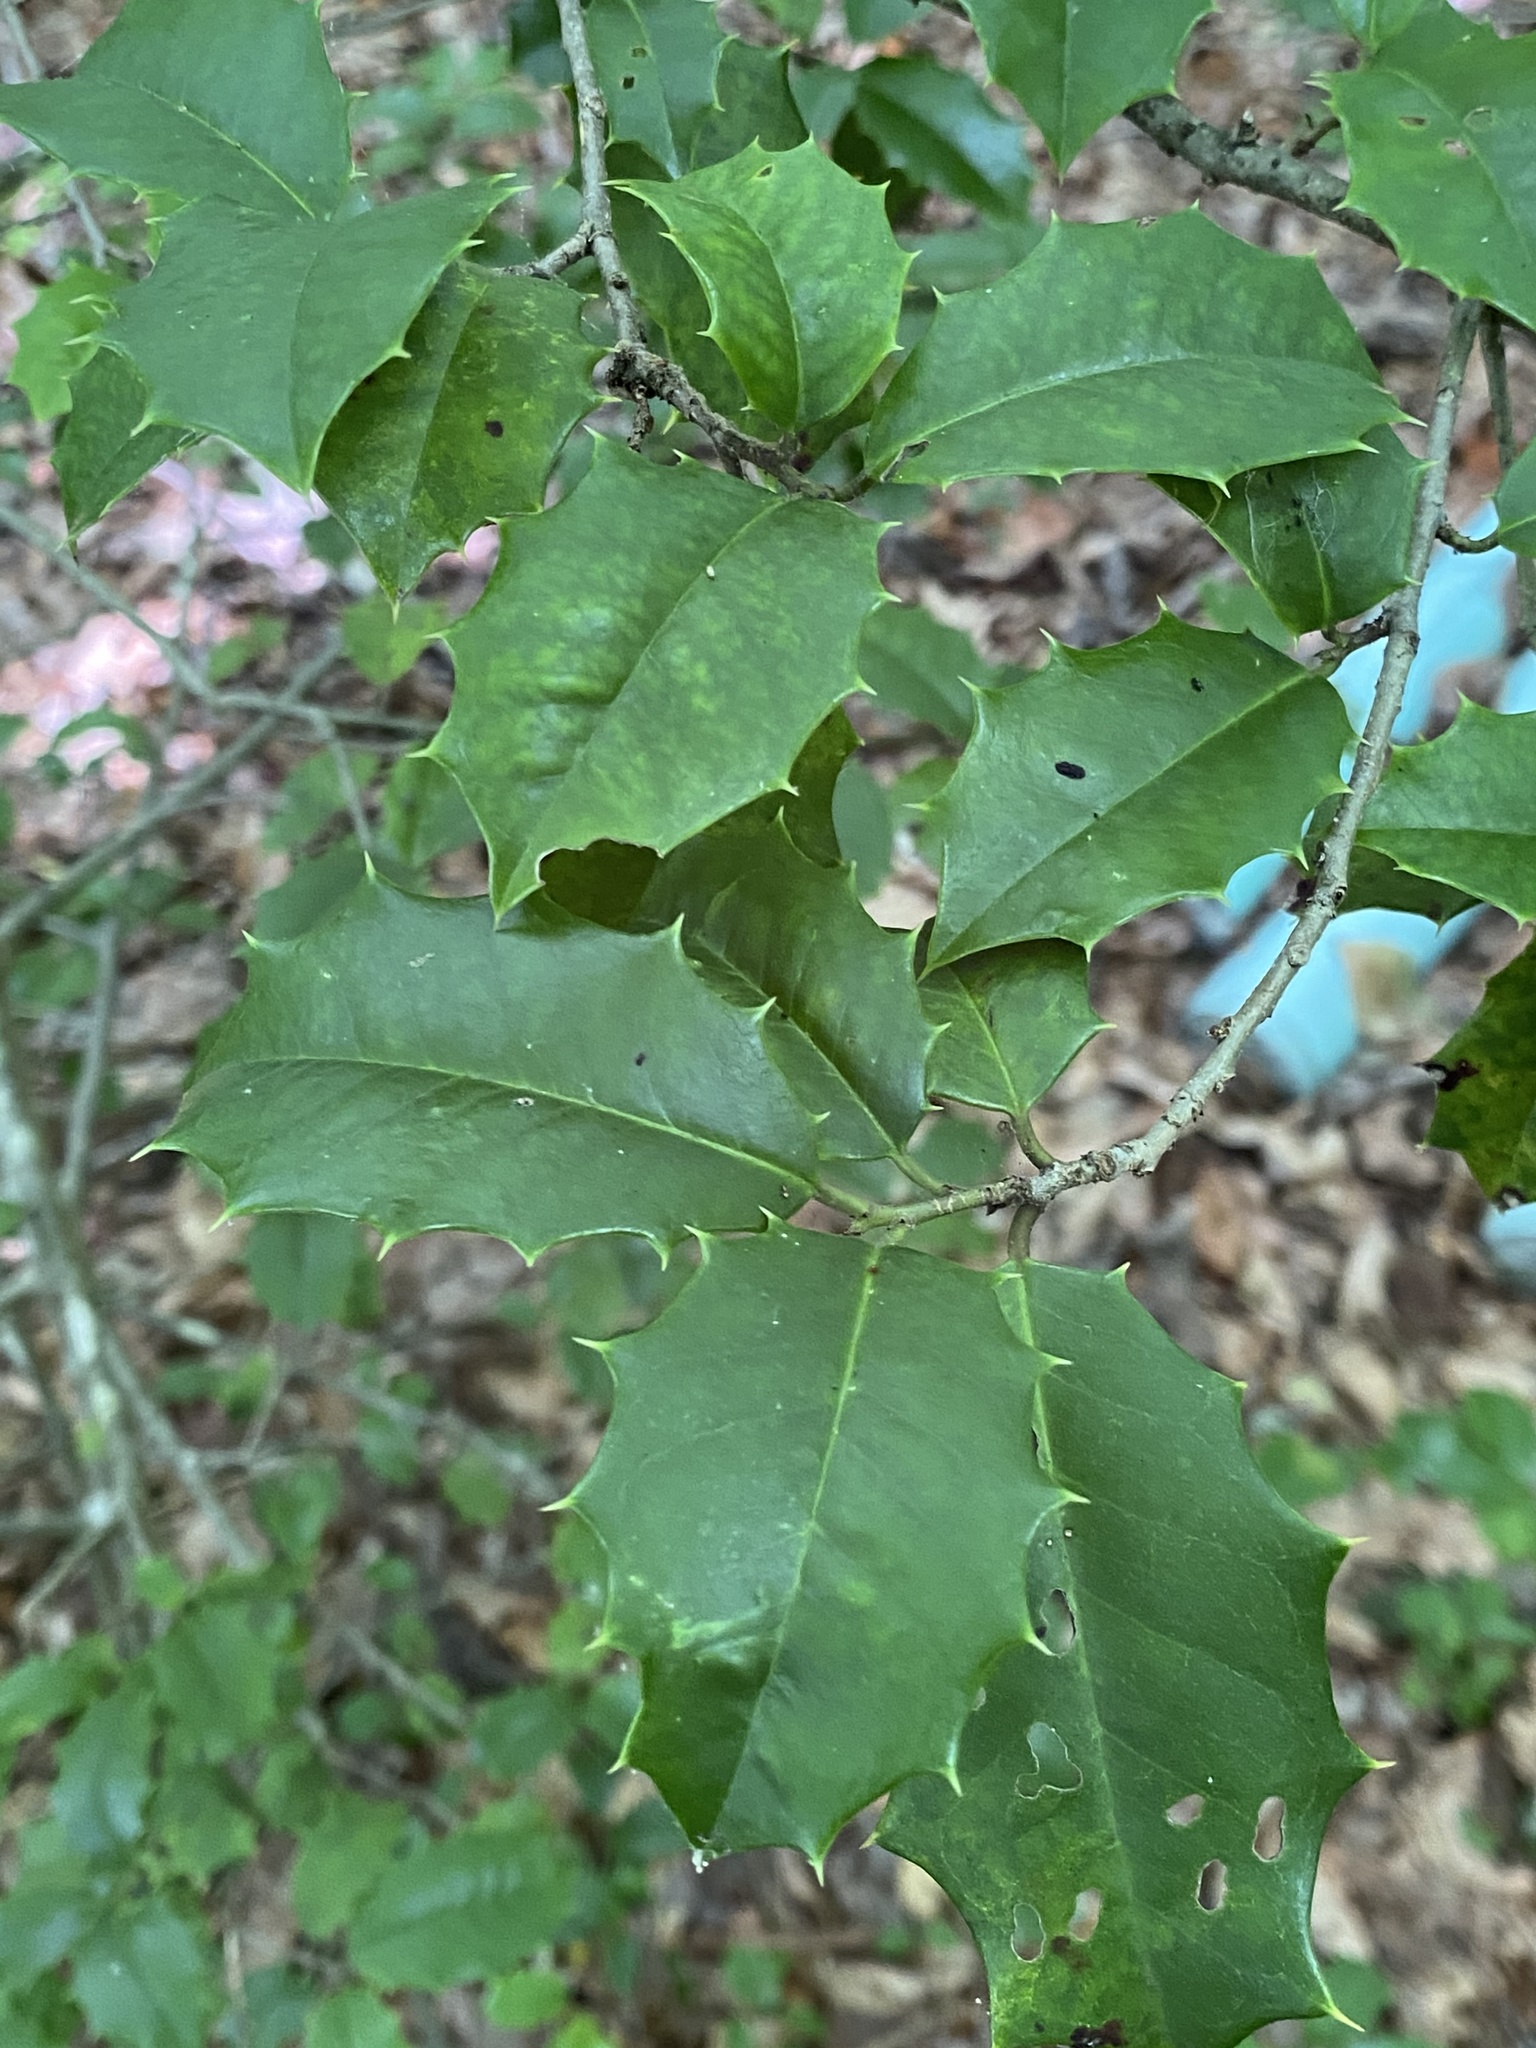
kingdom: Plantae
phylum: Tracheophyta
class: Magnoliopsida
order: Aquifoliales
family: Aquifoliaceae
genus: Ilex
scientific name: Ilex opaca
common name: American holly
